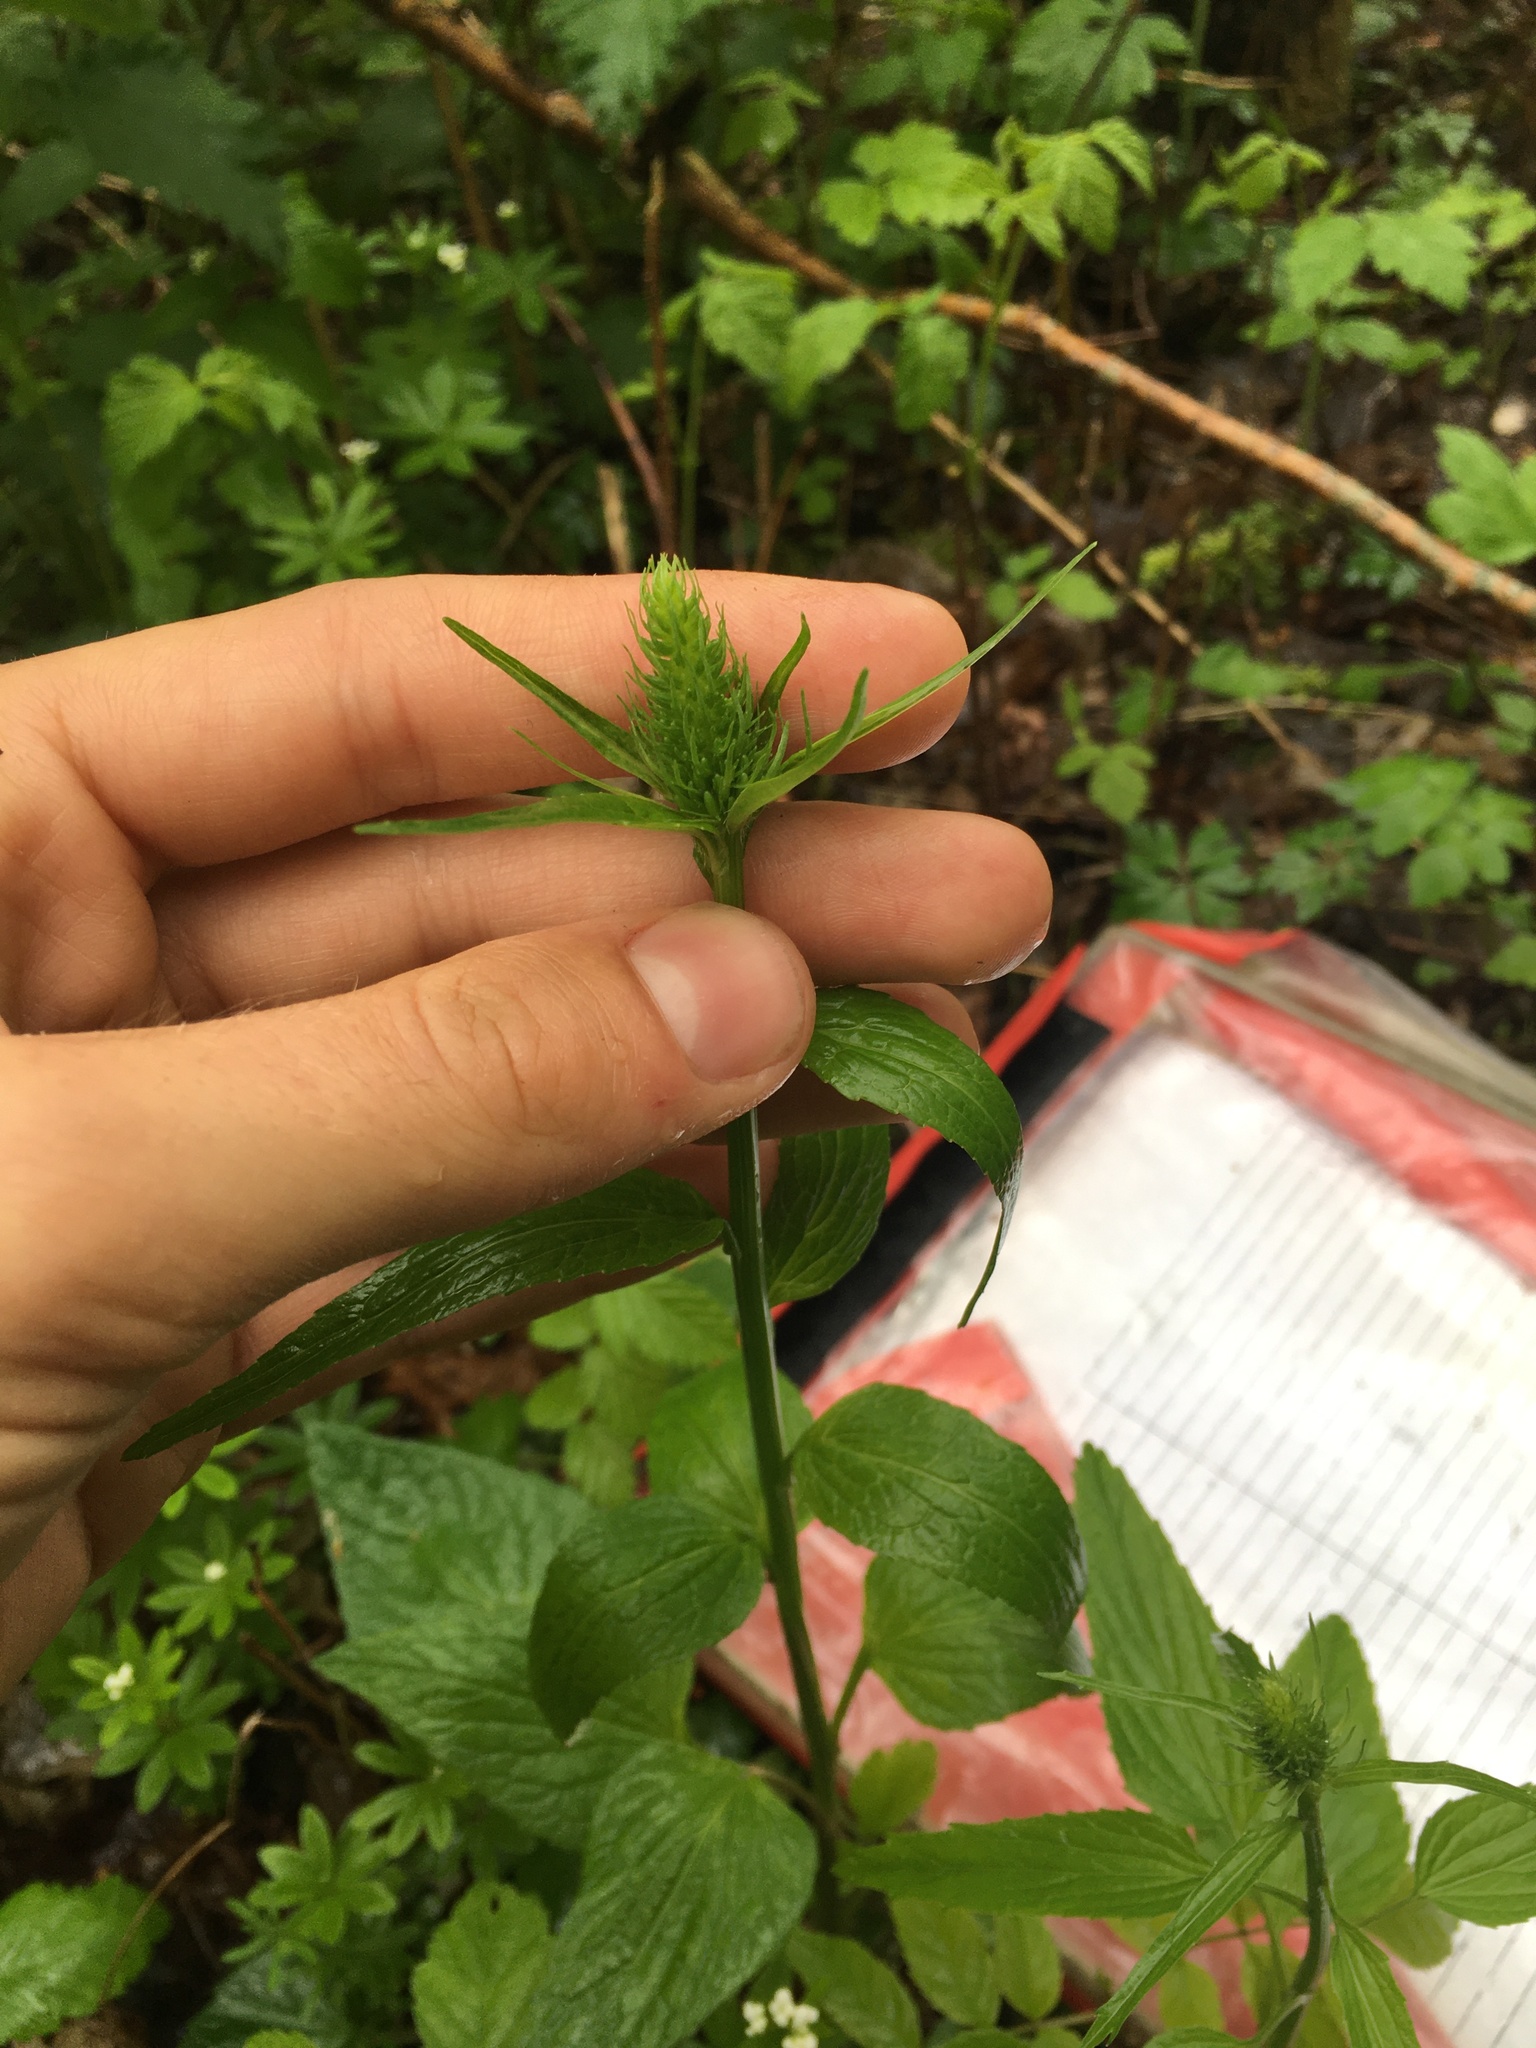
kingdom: Plantae
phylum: Tracheophyta
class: Magnoliopsida
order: Asterales
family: Campanulaceae
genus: Phyteuma
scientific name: Phyteuma spicatum
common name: Spiked rampion
